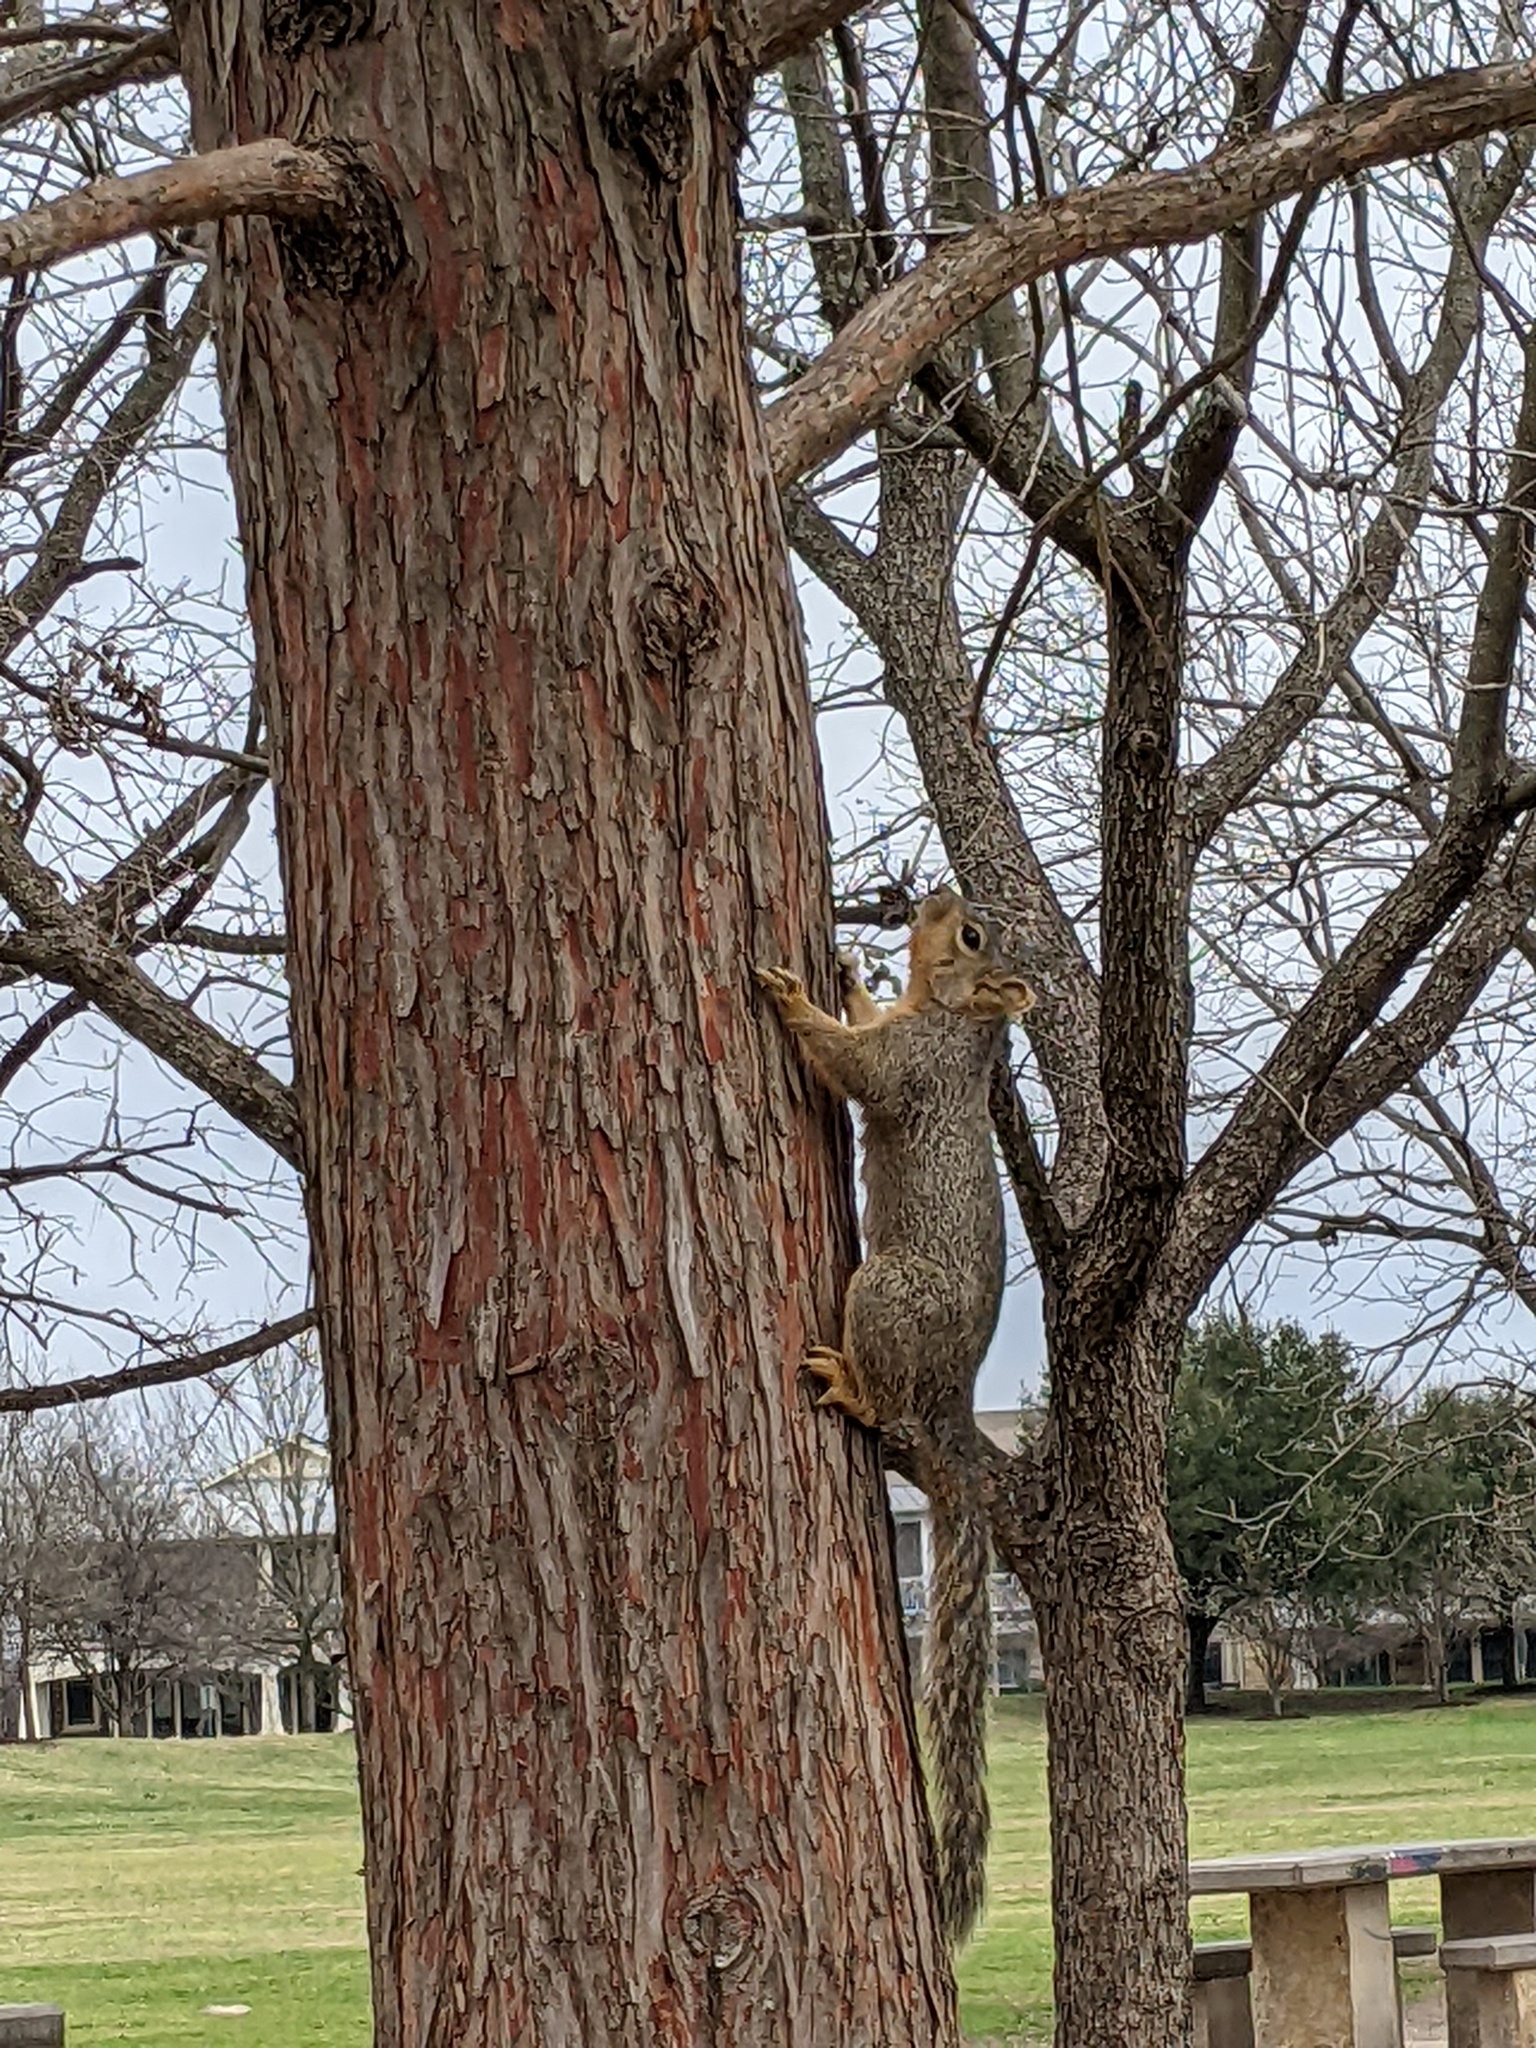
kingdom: Animalia
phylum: Chordata
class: Mammalia
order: Rodentia
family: Sciuridae
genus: Sciurus
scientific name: Sciurus niger
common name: Fox squirrel
